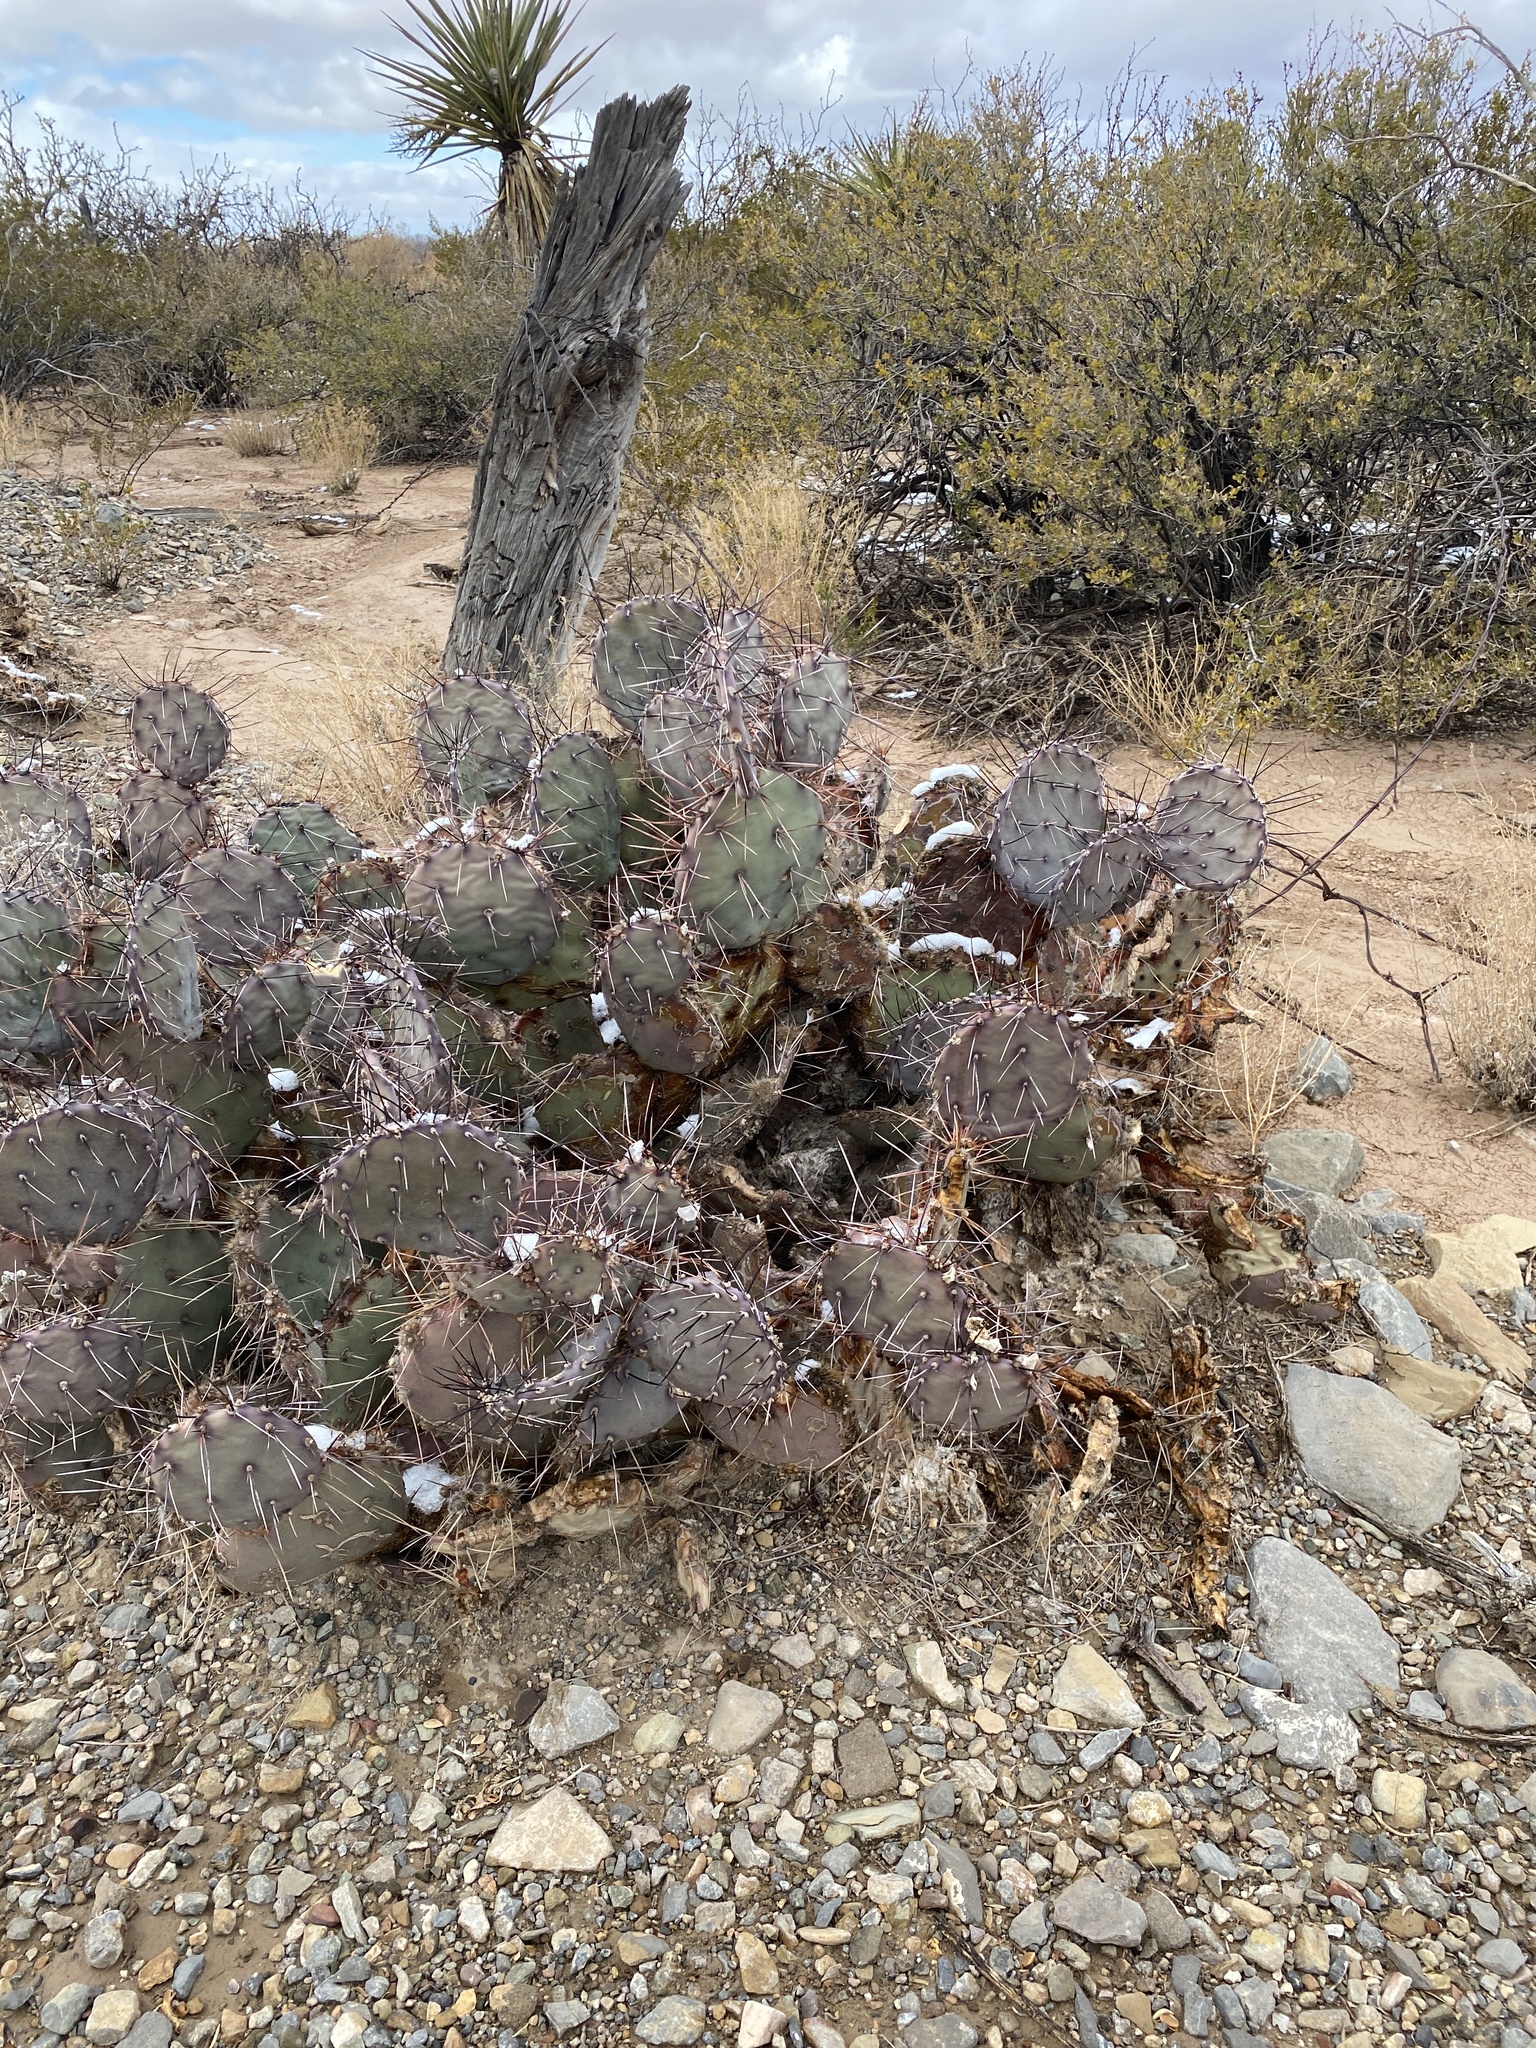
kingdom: Plantae
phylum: Tracheophyta
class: Magnoliopsida
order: Caryophyllales
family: Cactaceae
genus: Opuntia
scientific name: Opuntia macrocentra
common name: Purple prickly-pear
